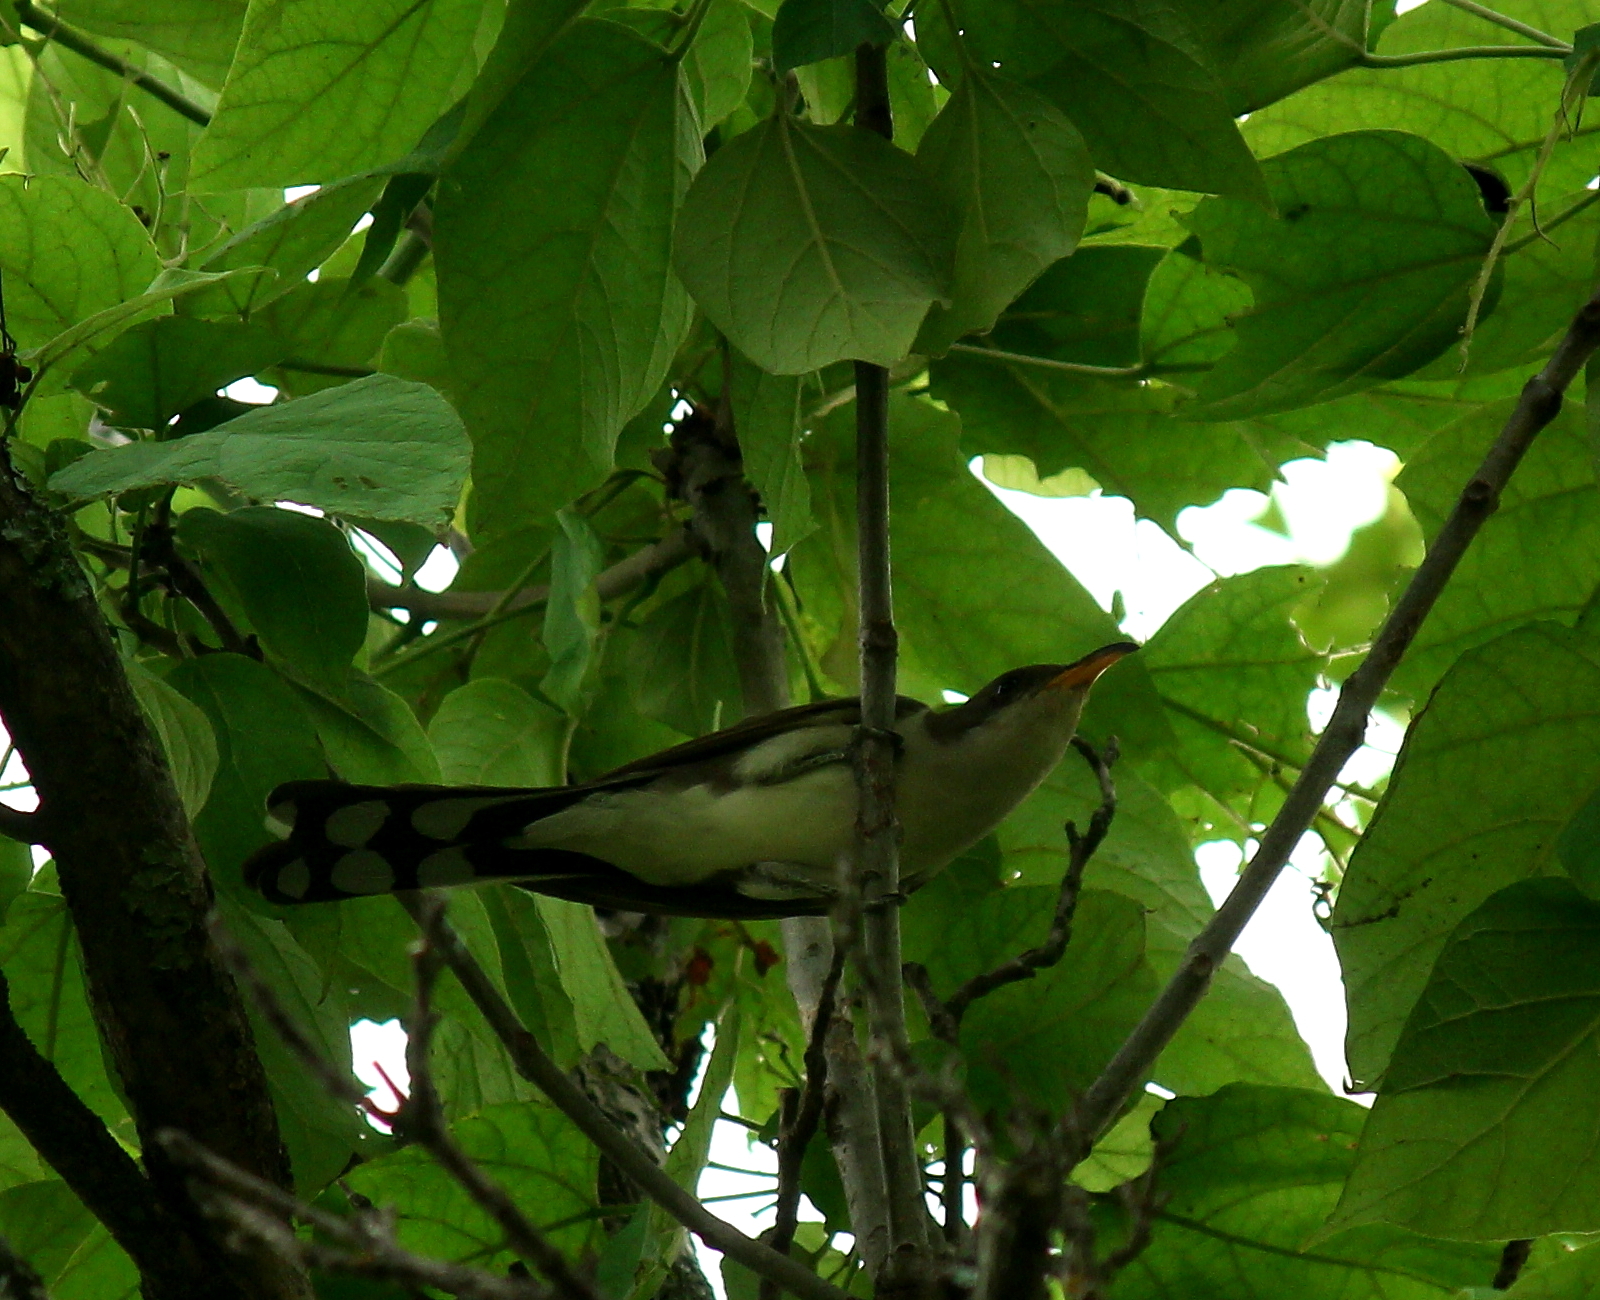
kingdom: Animalia
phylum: Chordata
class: Aves
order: Cuculiformes
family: Cuculidae
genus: Coccyzus
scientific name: Coccyzus americanus
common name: Yellow-billed cuckoo
